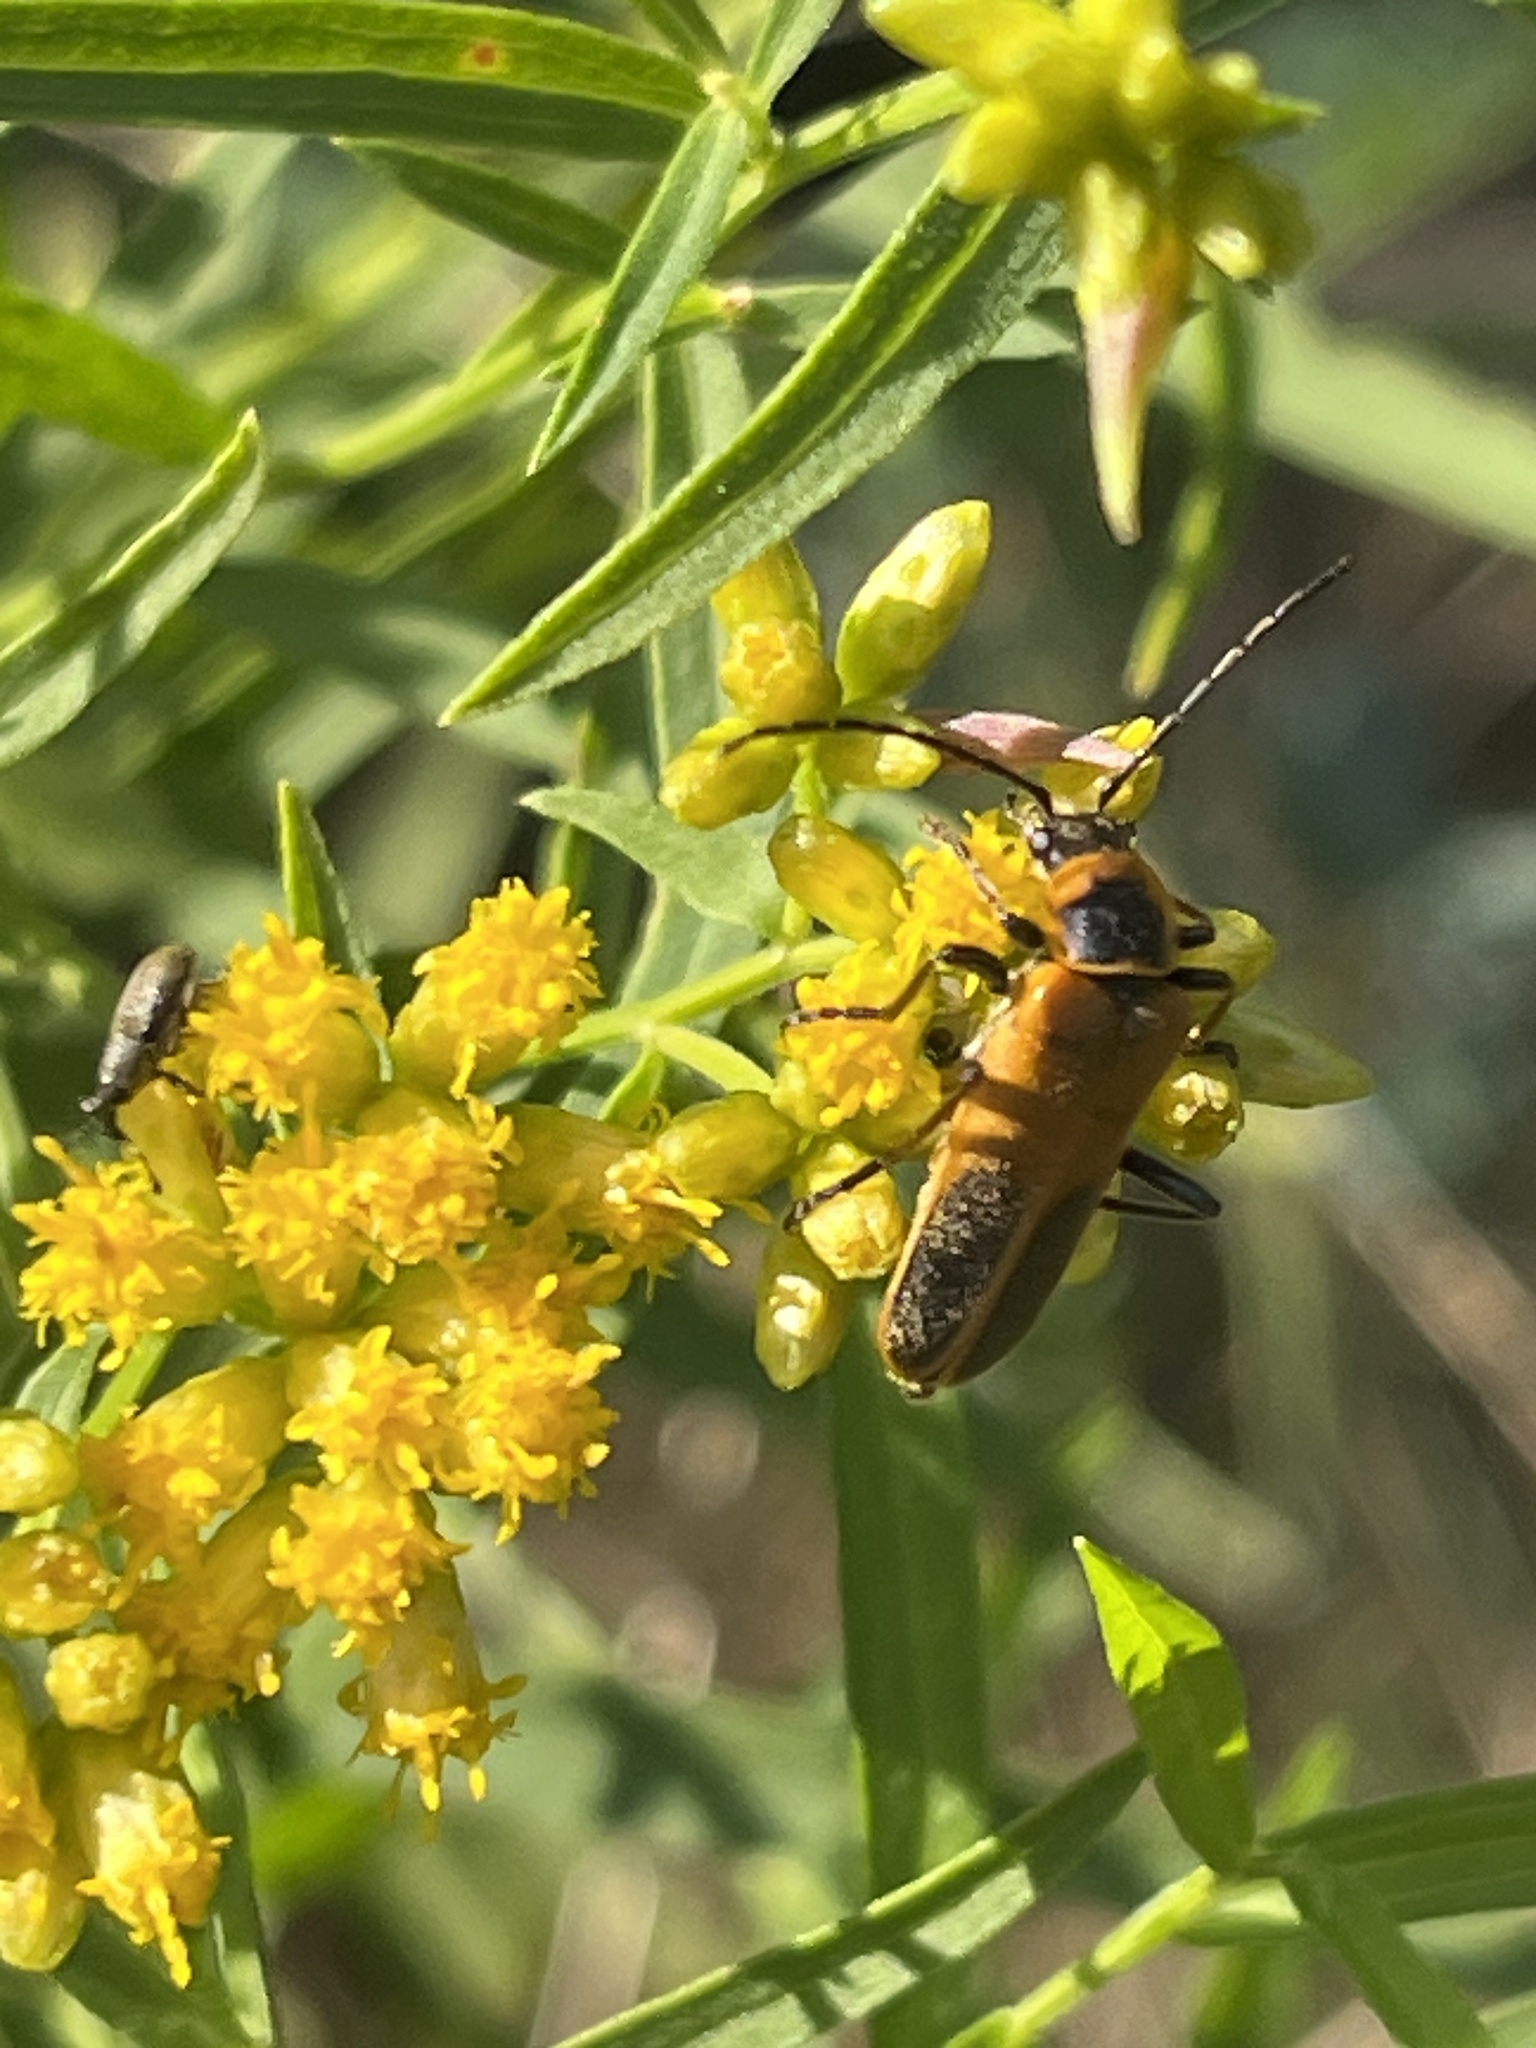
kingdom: Animalia
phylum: Arthropoda
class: Insecta
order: Coleoptera
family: Cantharidae
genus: Chauliognathus
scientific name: Chauliognathus pensylvanicus
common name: Goldenrod soldier beetle
